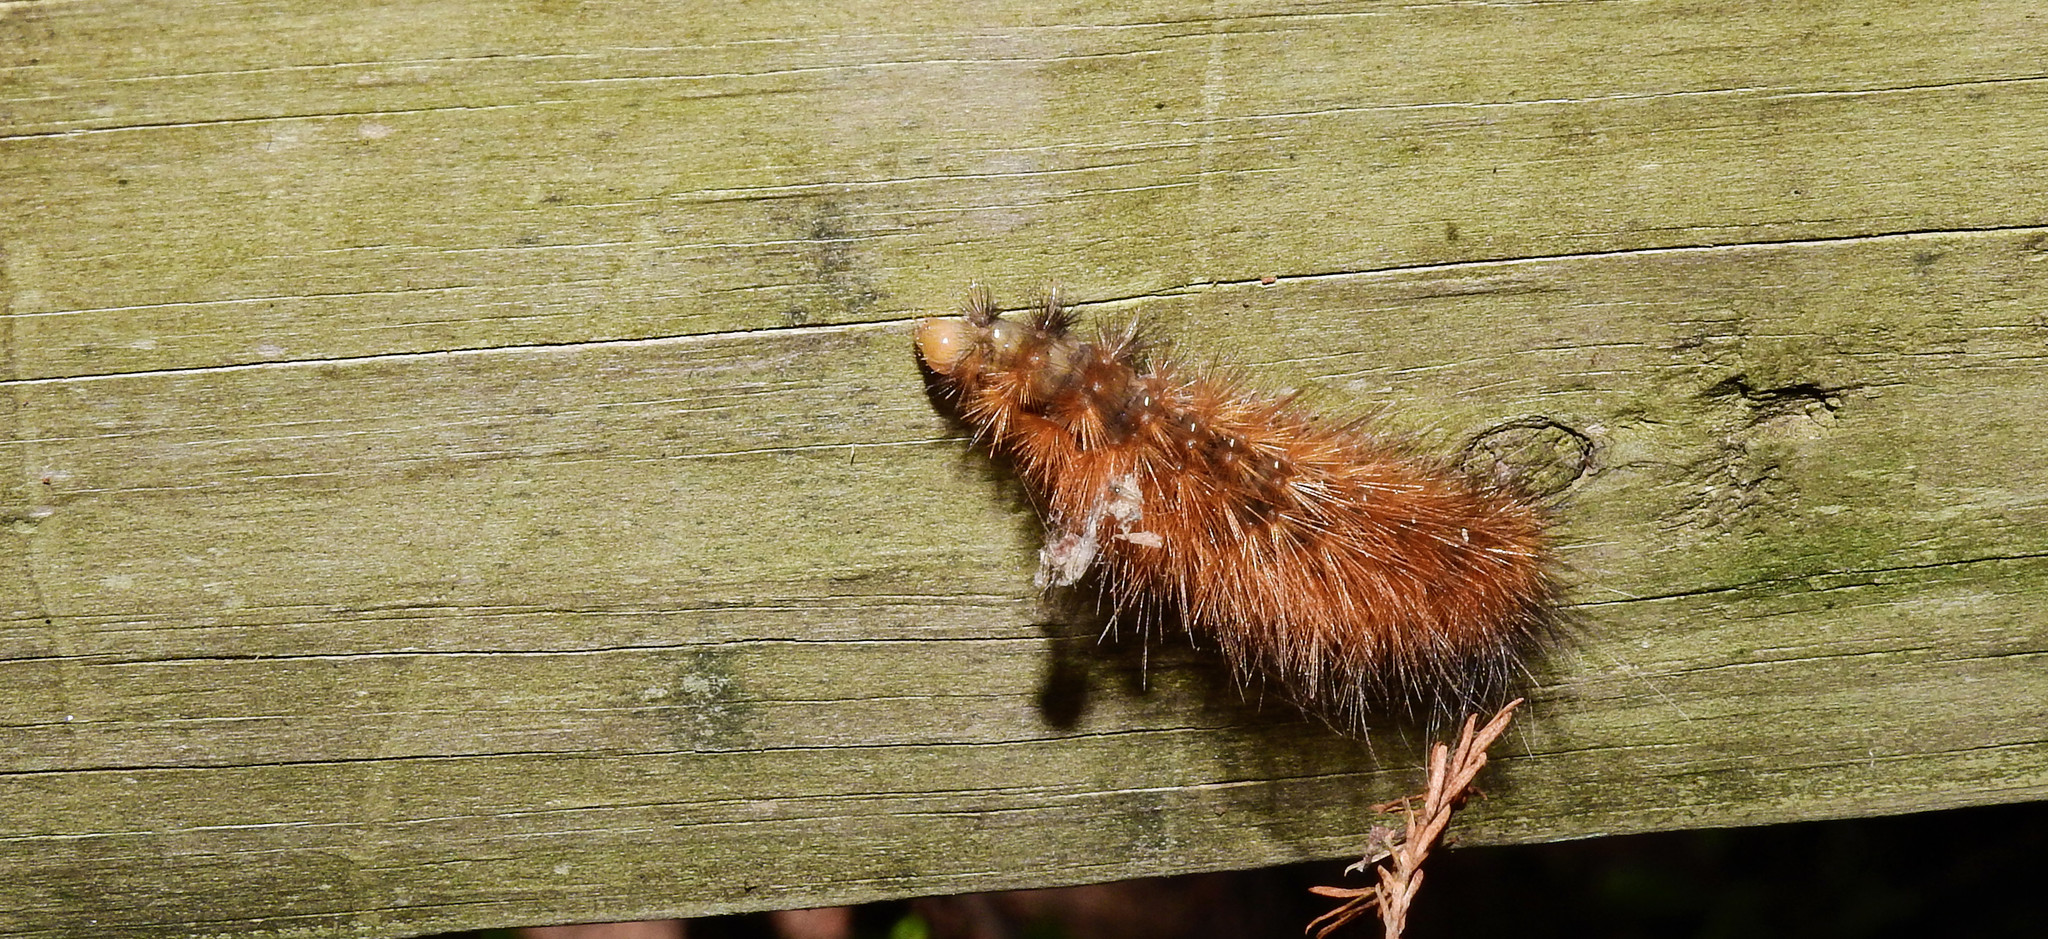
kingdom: Animalia
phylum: Arthropoda
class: Insecta
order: Lepidoptera
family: Erebidae
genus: Pyrrharctia
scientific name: Pyrrharctia isabella
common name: Isabella tiger moth
